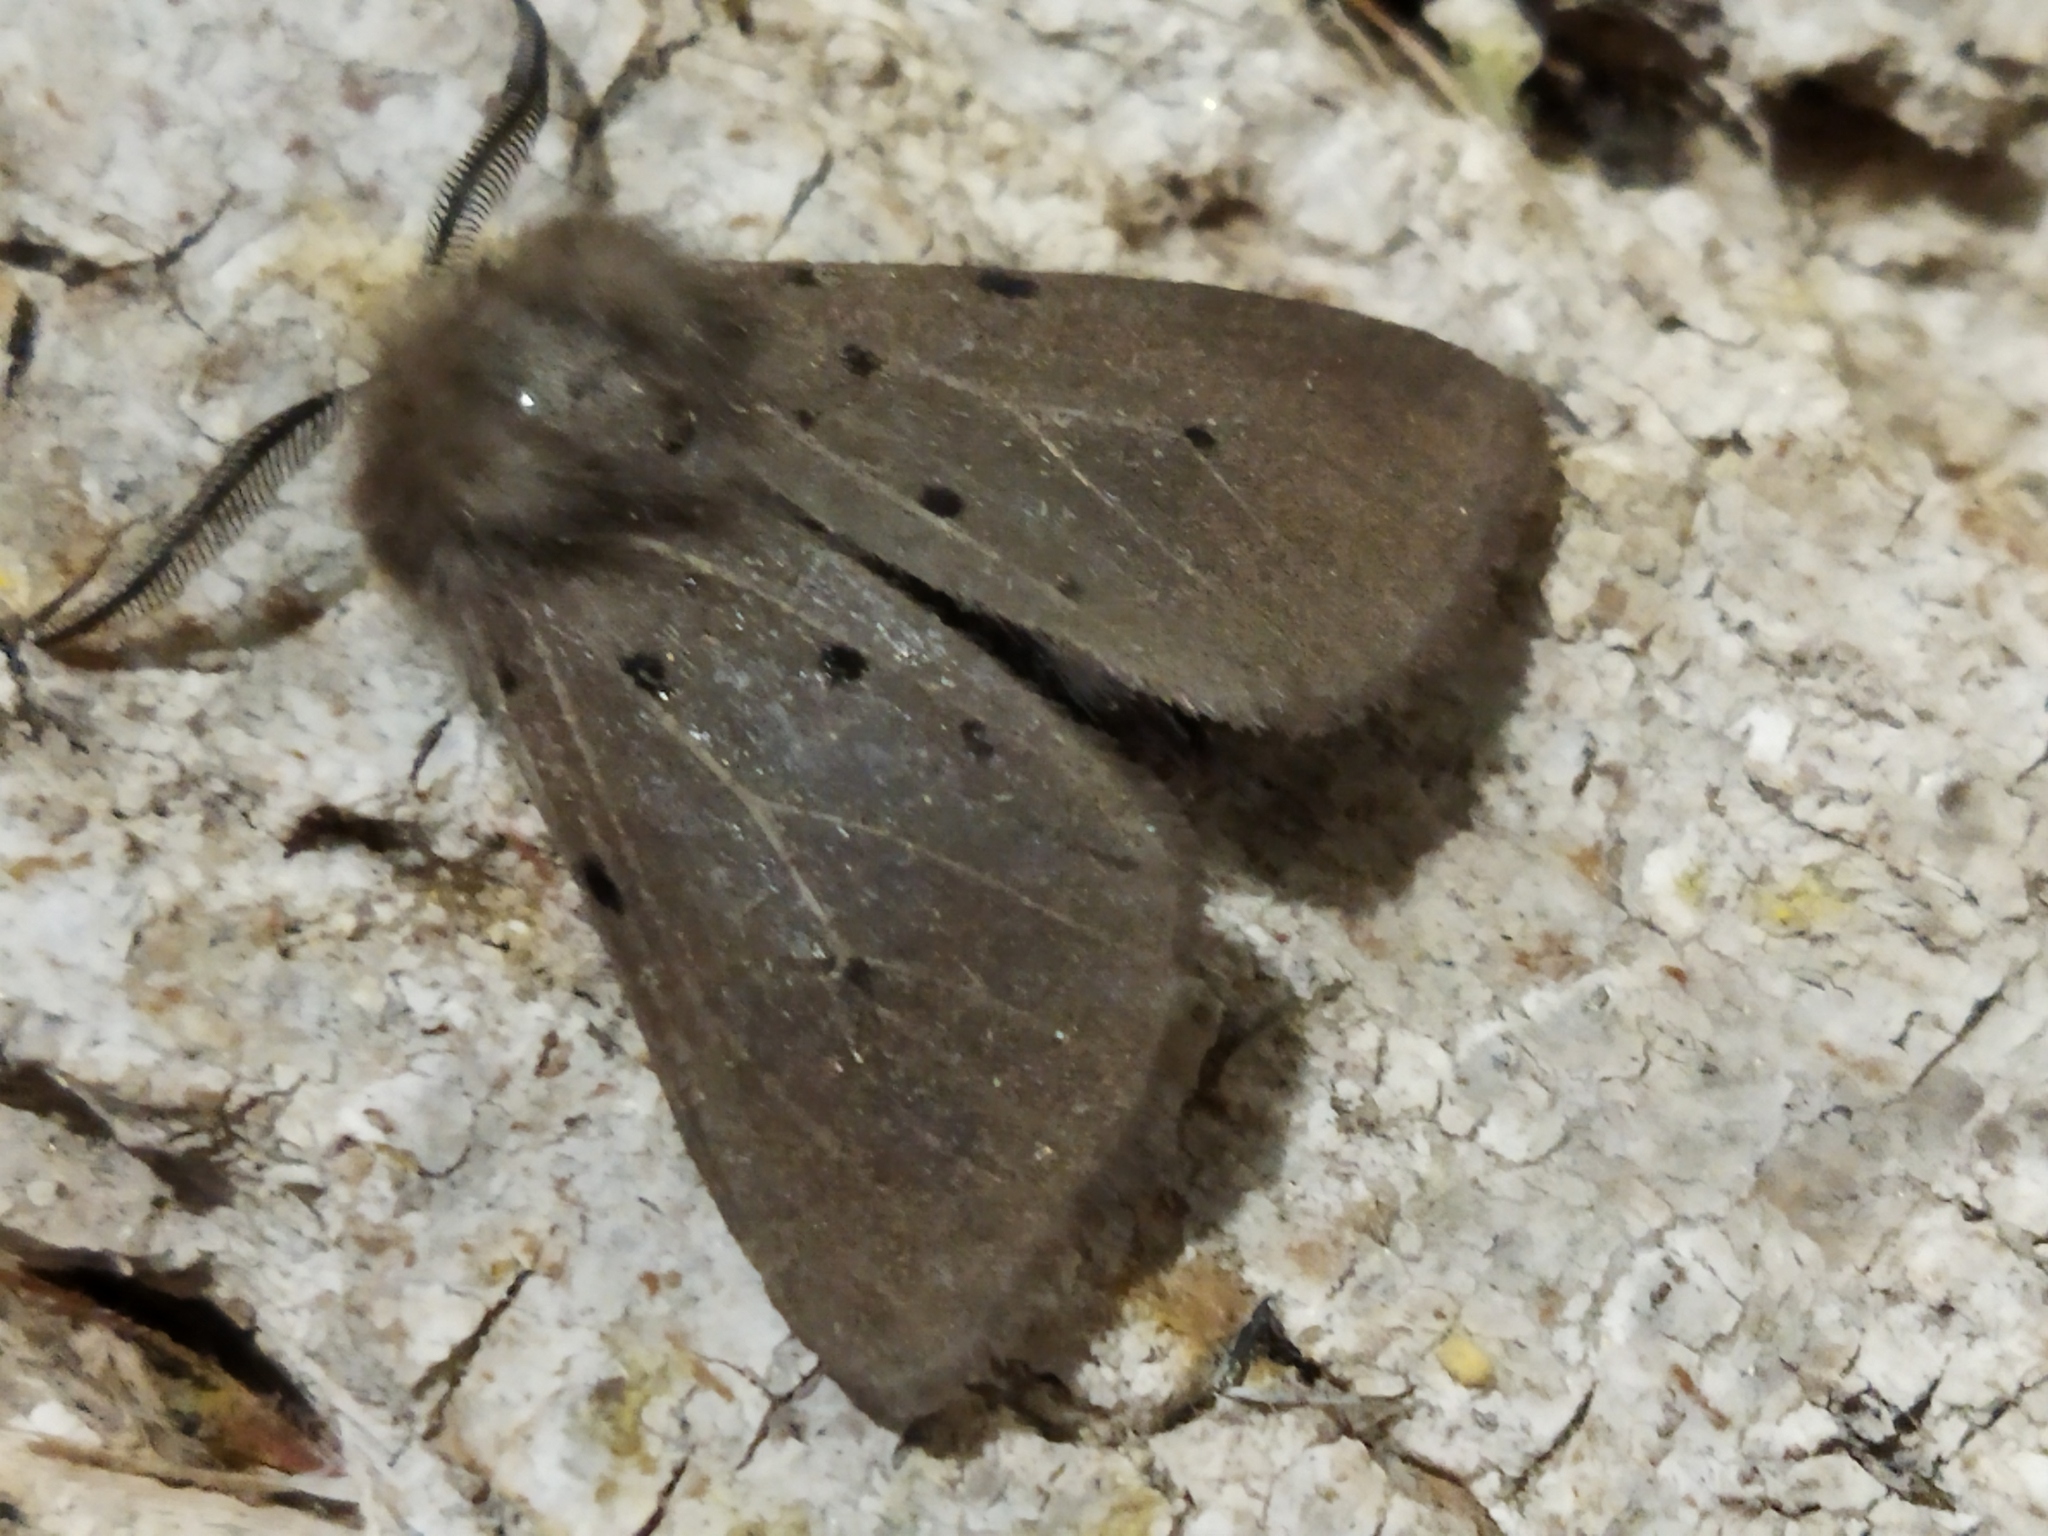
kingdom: Animalia
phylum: Arthropoda
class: Insecta
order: Lepidoptera
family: Erebidae
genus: Diaphora
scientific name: Diaphora mendica
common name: Muslin moth
